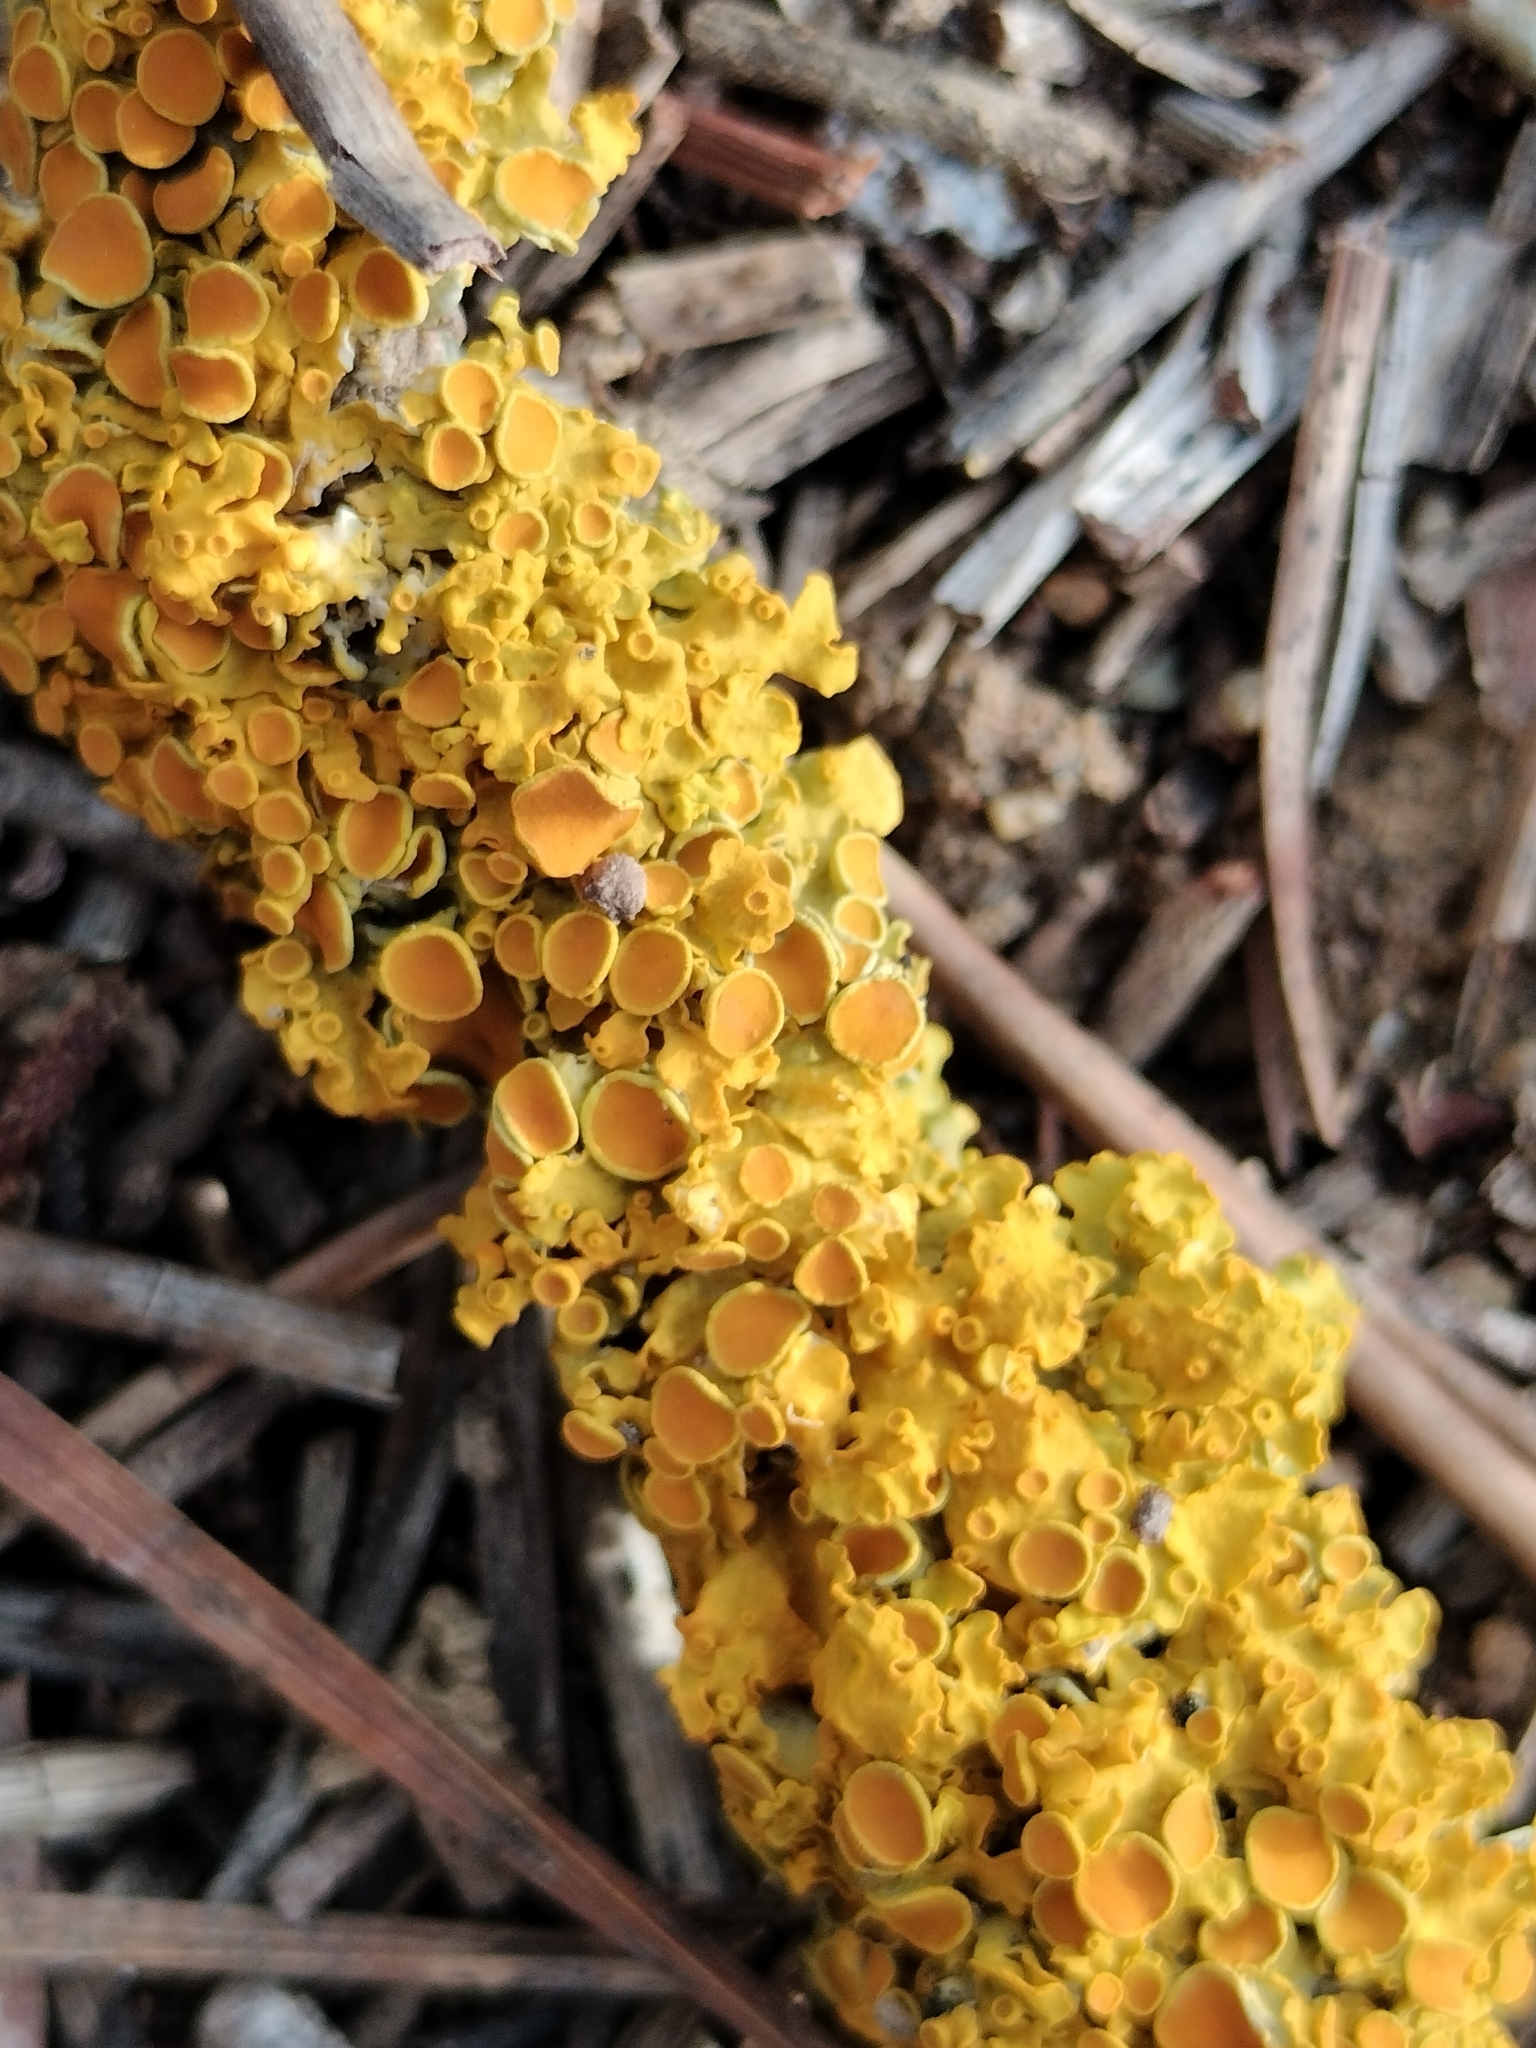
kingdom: Fungi
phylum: Ascomycota
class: Lecanoromycetes
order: Teloschistales
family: Teloschistaceae
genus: Xanthoria
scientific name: Xanthoria parietina
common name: Common orange lichen
